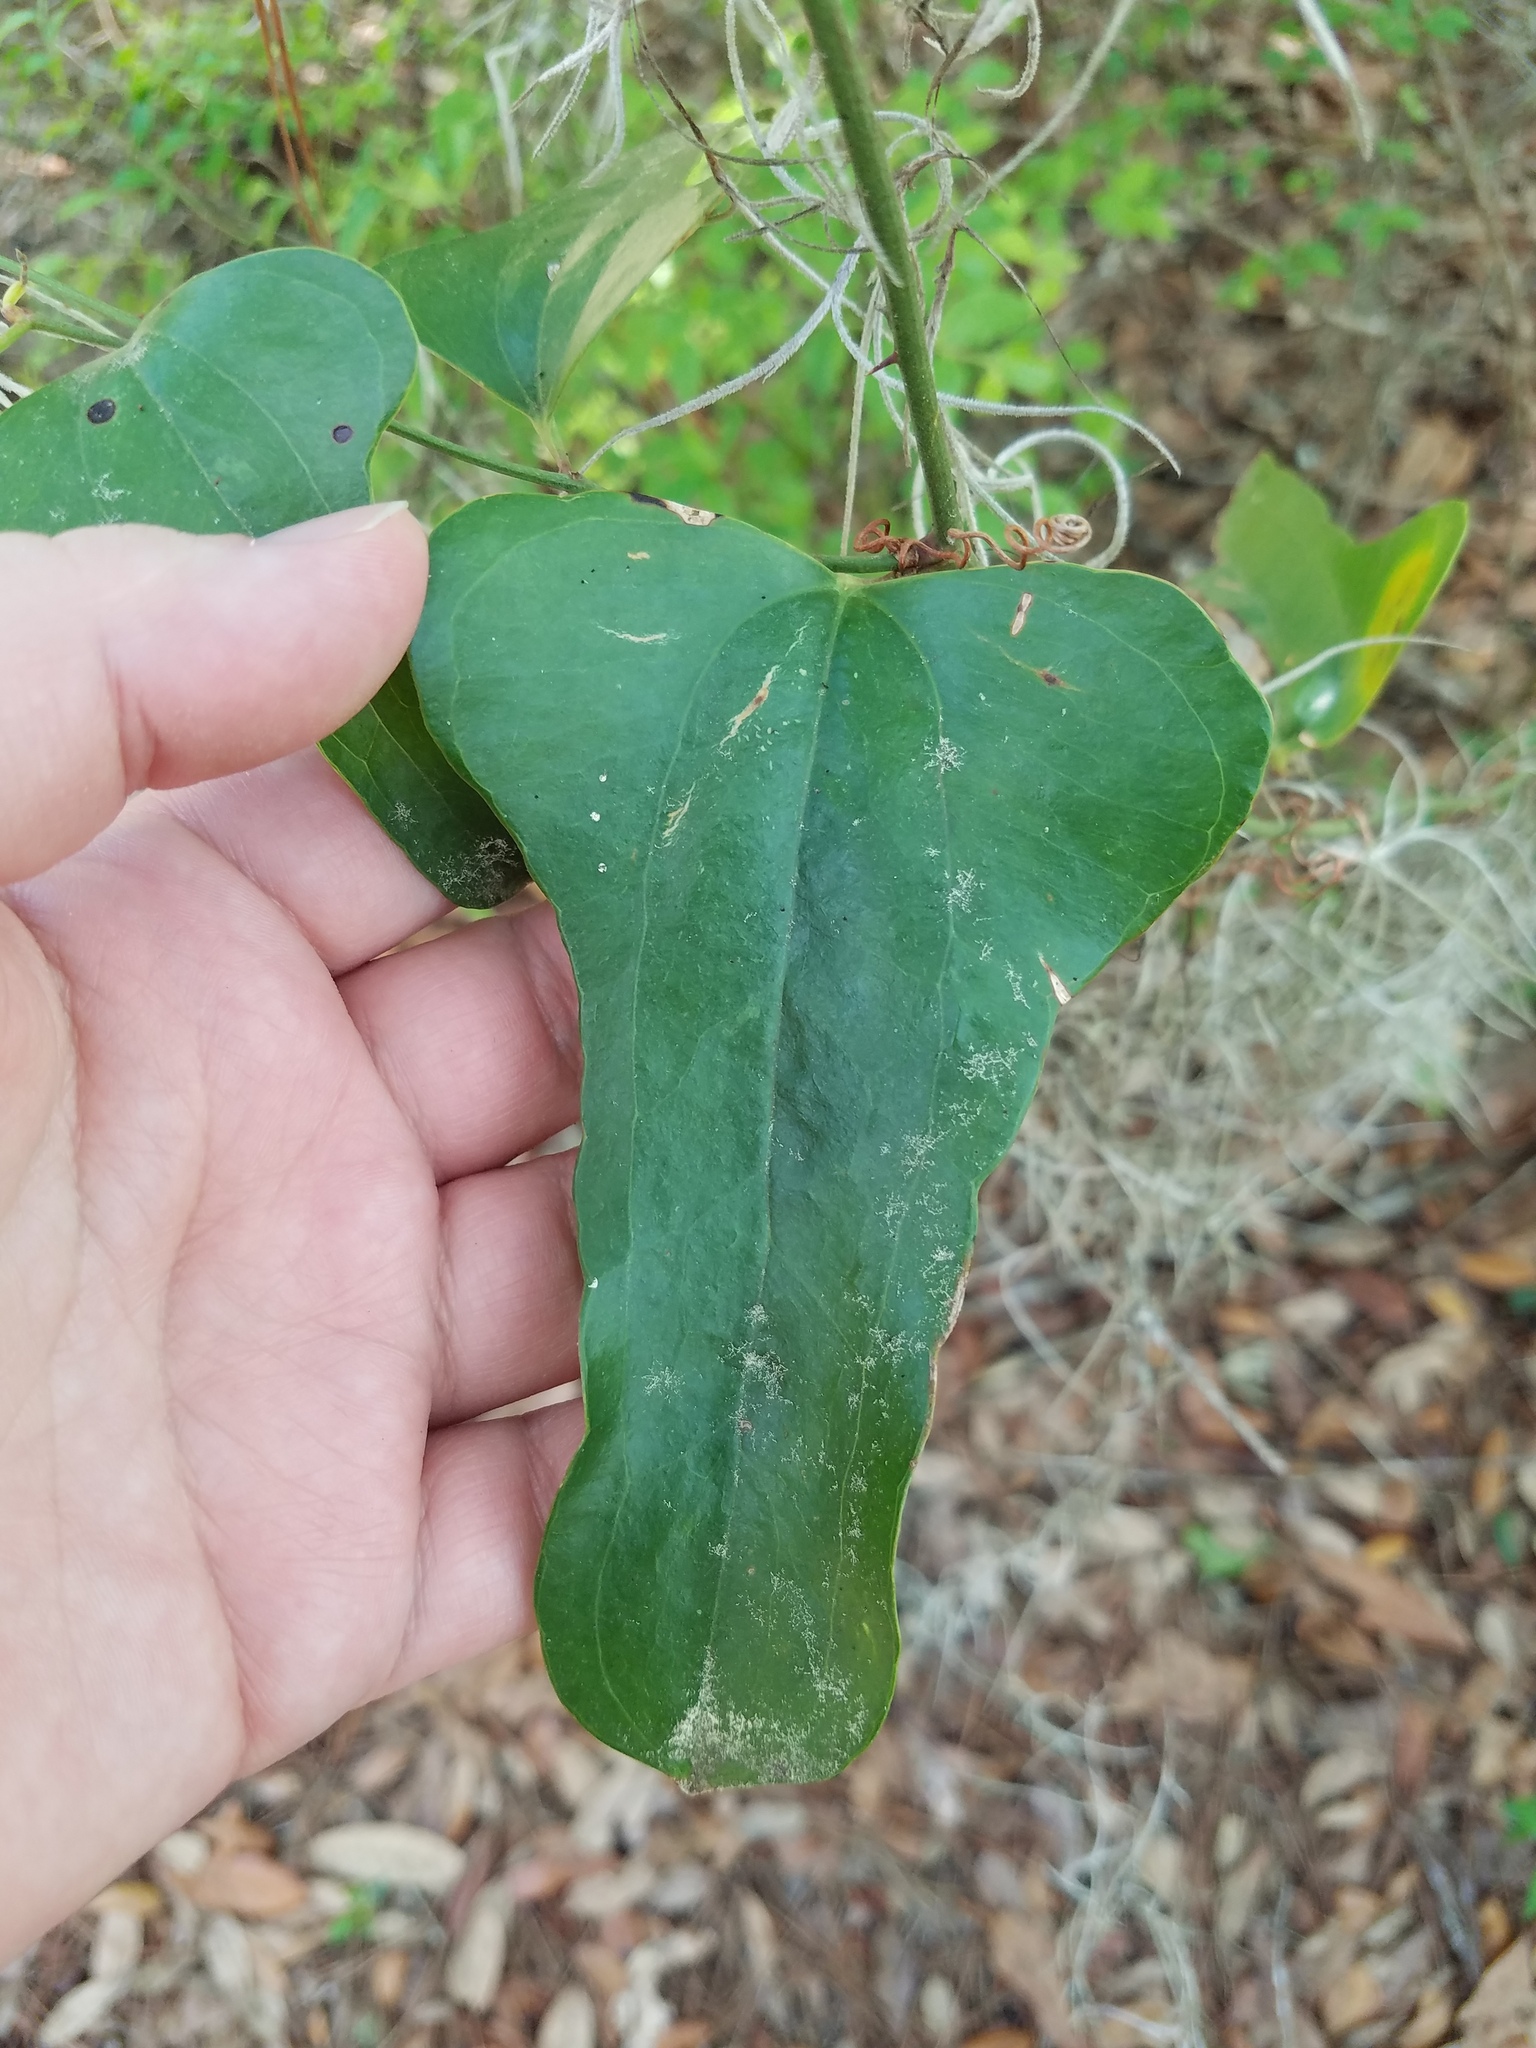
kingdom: Plantae
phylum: Tracheophyta
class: Liliopsida
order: Liliales
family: Smilacaceae
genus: Smilax
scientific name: Smilax auriculata
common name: Wild bamboo
